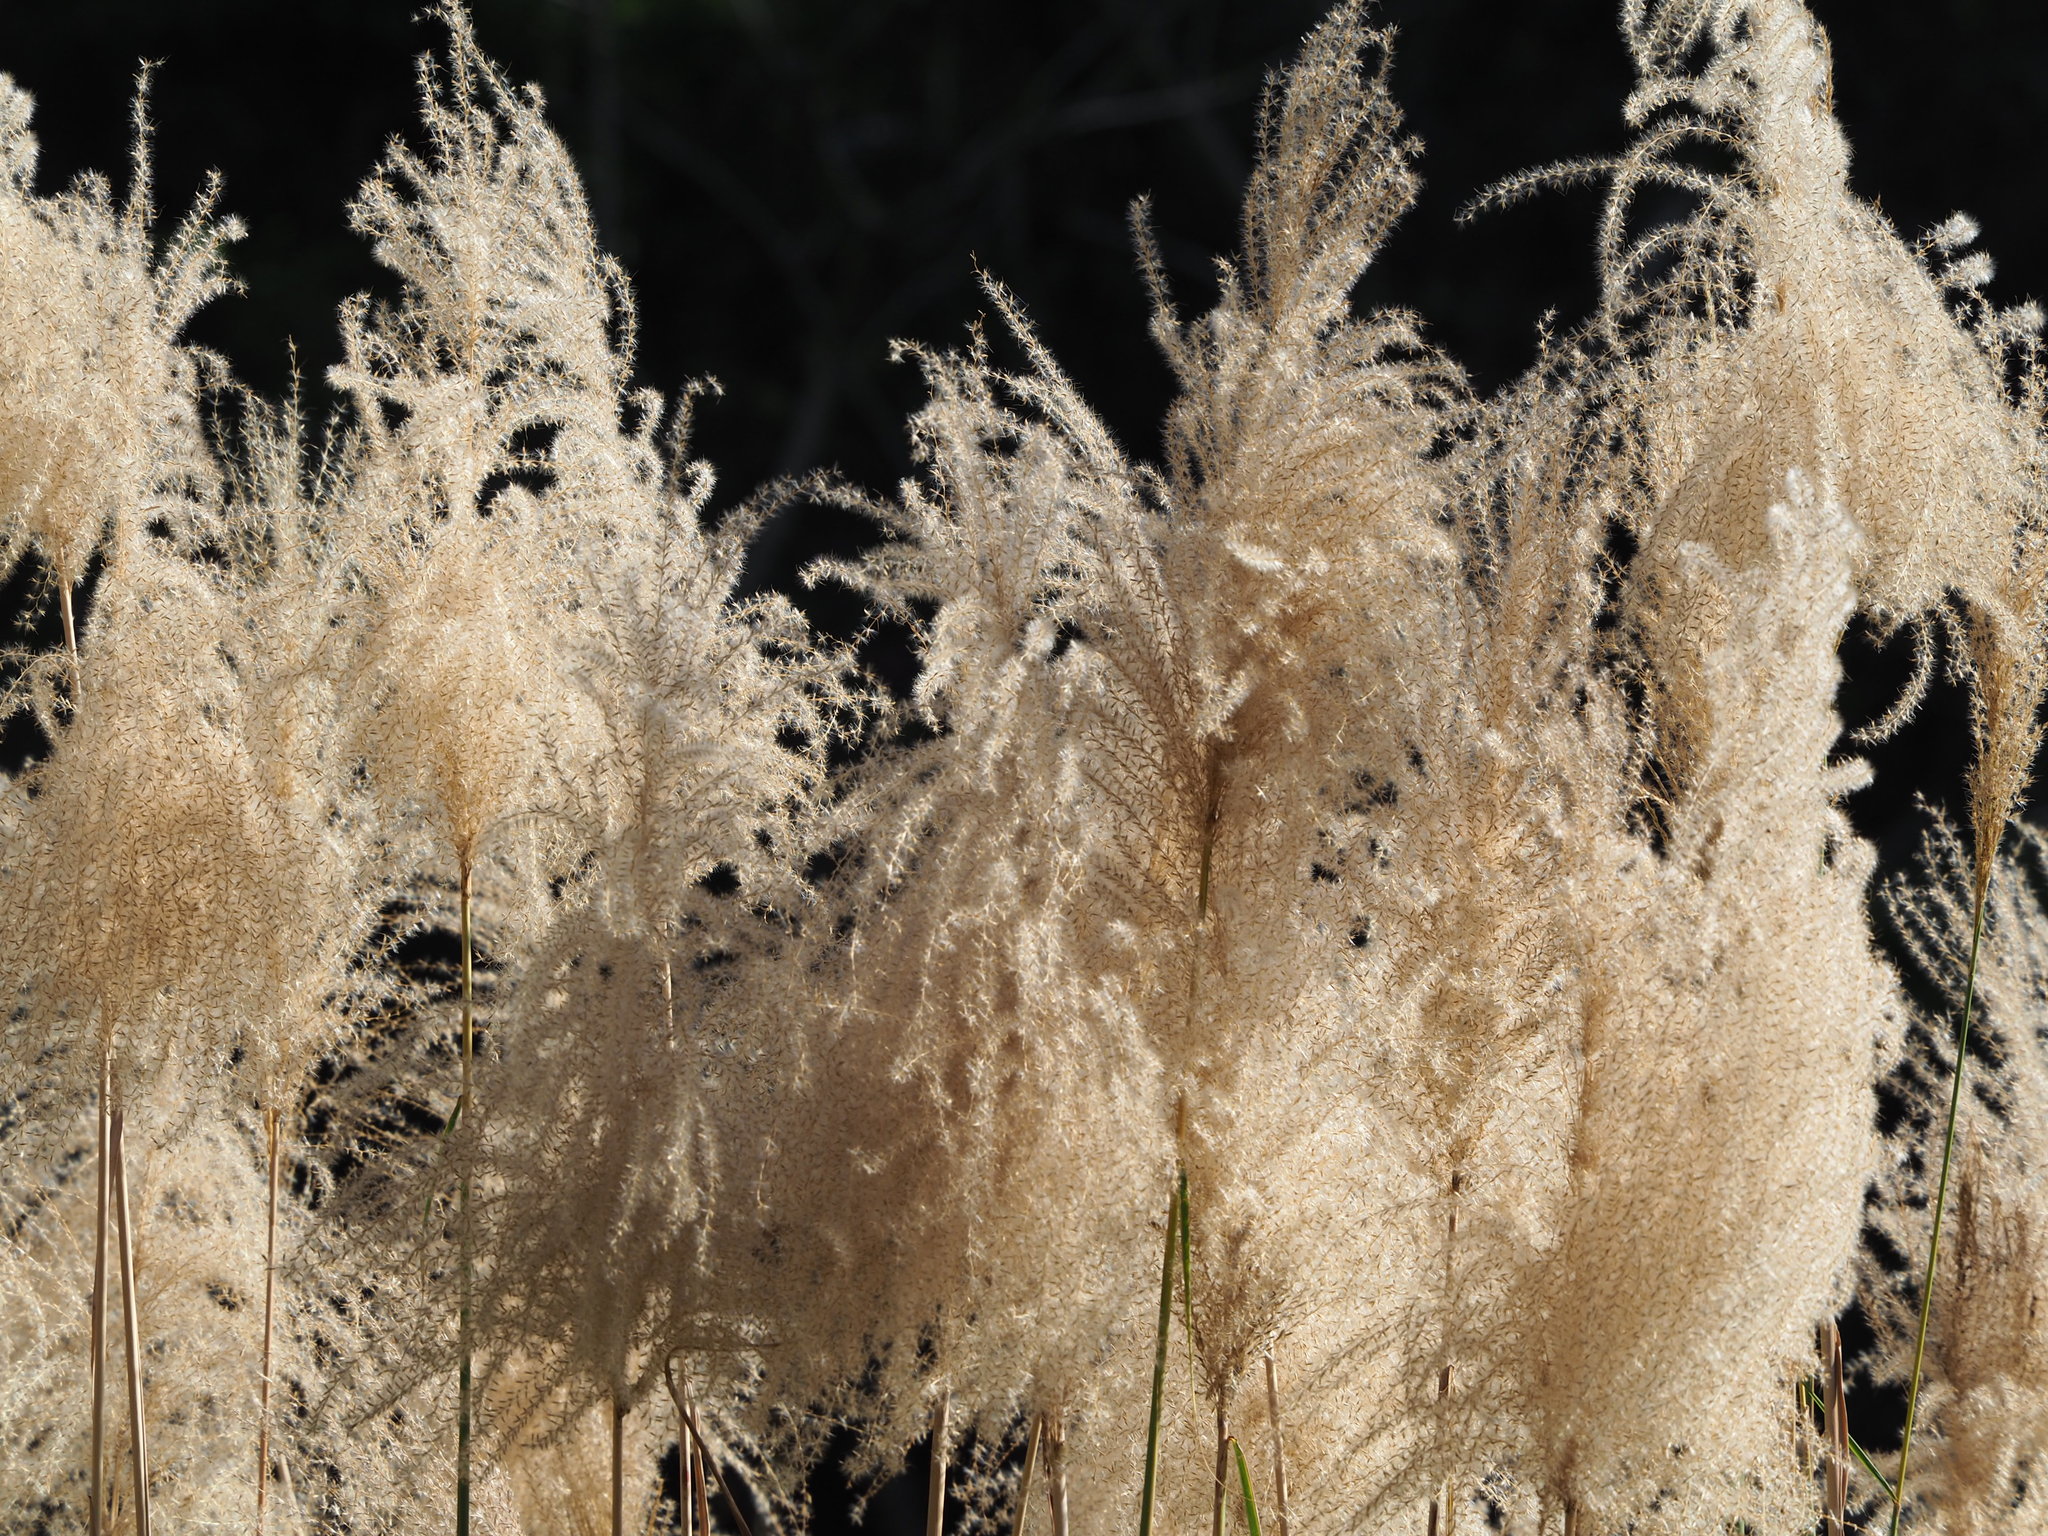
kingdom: Plantae
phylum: Tracheophyta
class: Liliopsida
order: Poales
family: Poaceae
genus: Miscanthus
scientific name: Miscanthus sinensis
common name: Chinese silvergrass
